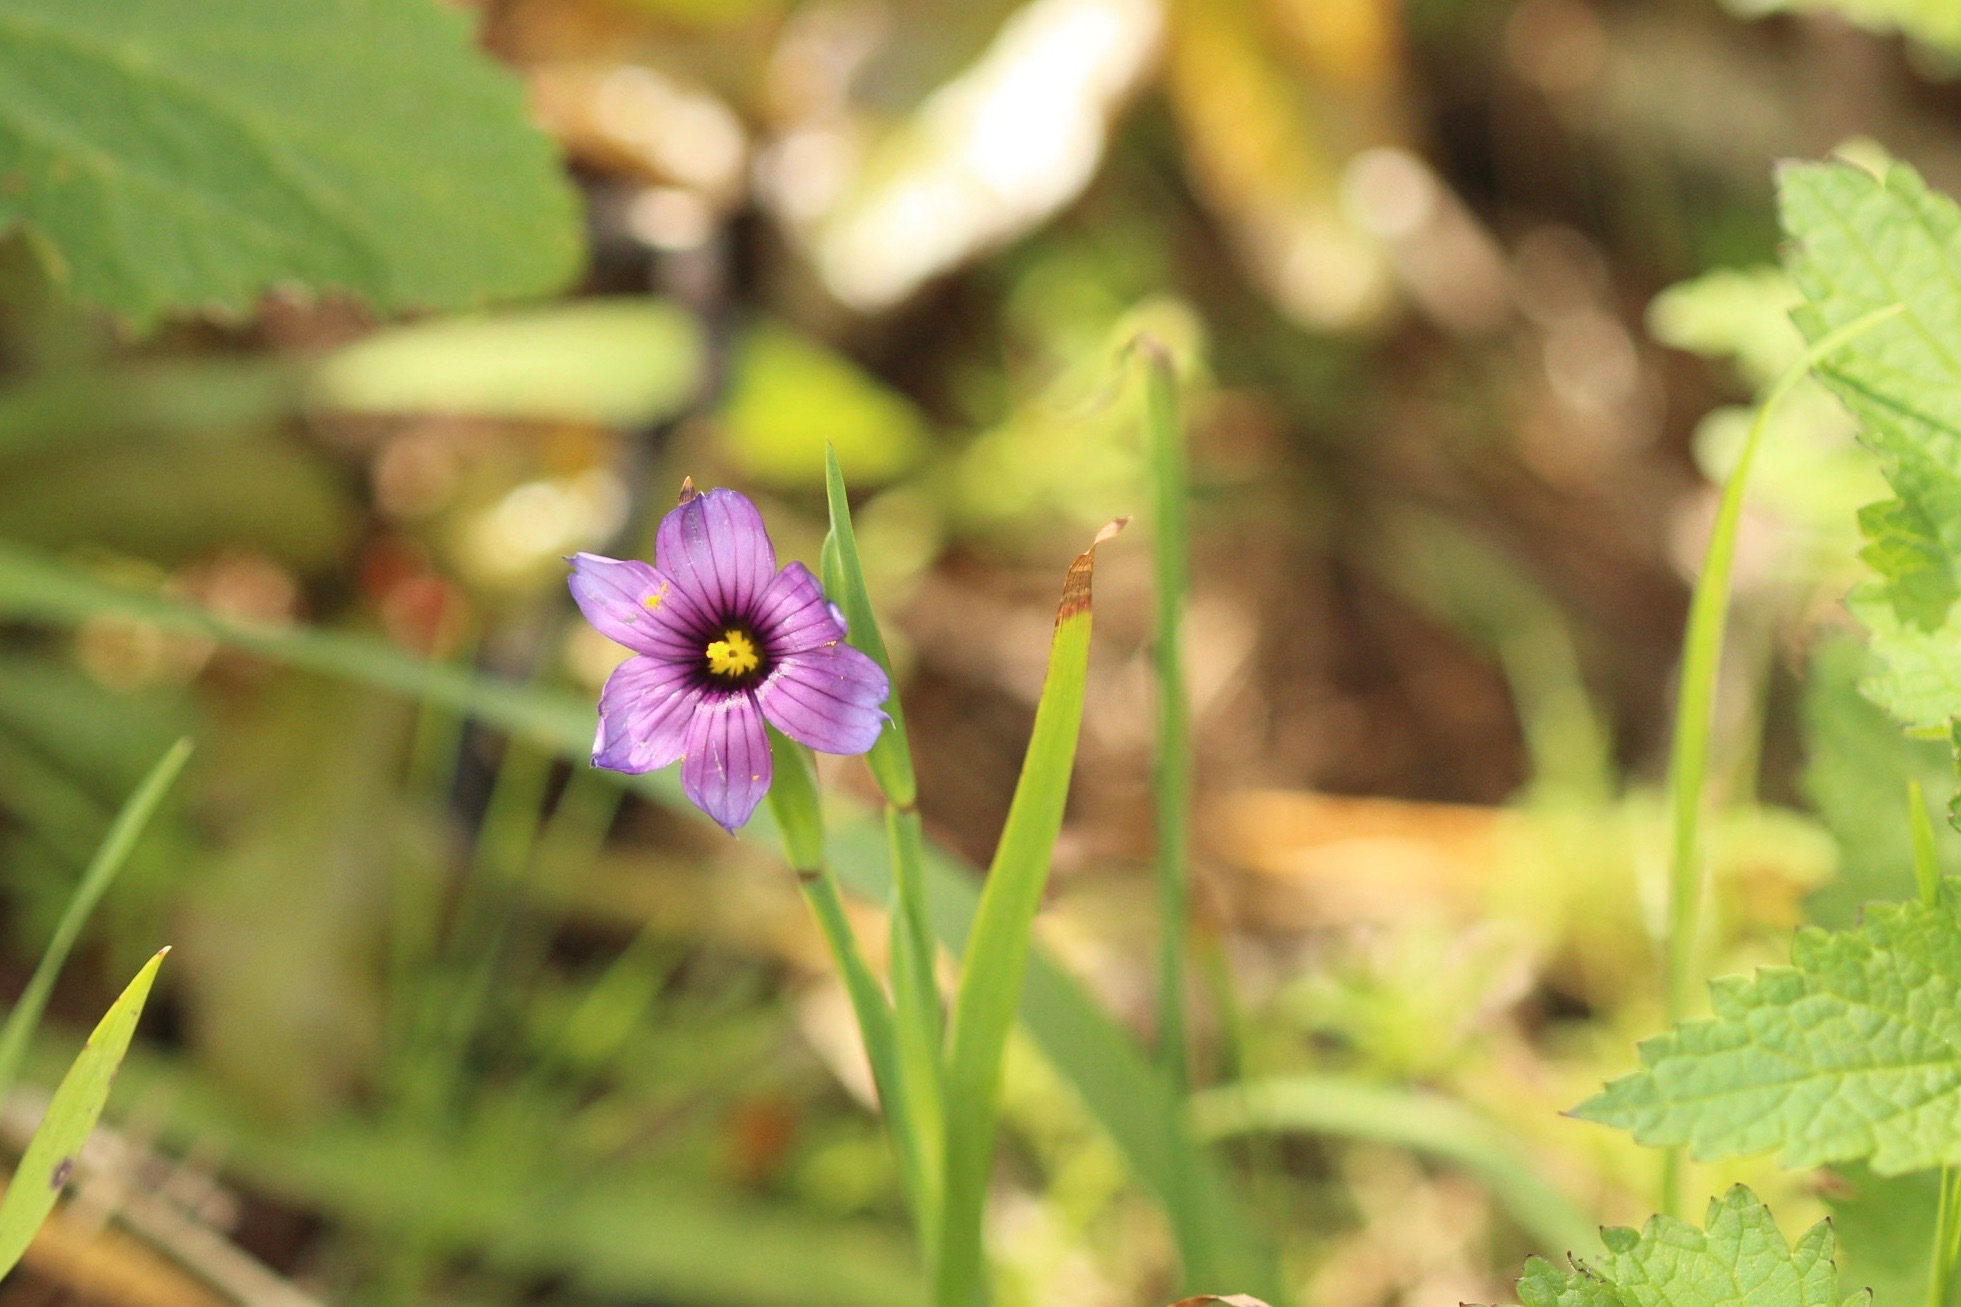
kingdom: Plantae
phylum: Tracheophyta
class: Liliopsida
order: Asparagales
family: Iridaceae
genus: Sisyrinchium
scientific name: Sisyrinchium bellum
